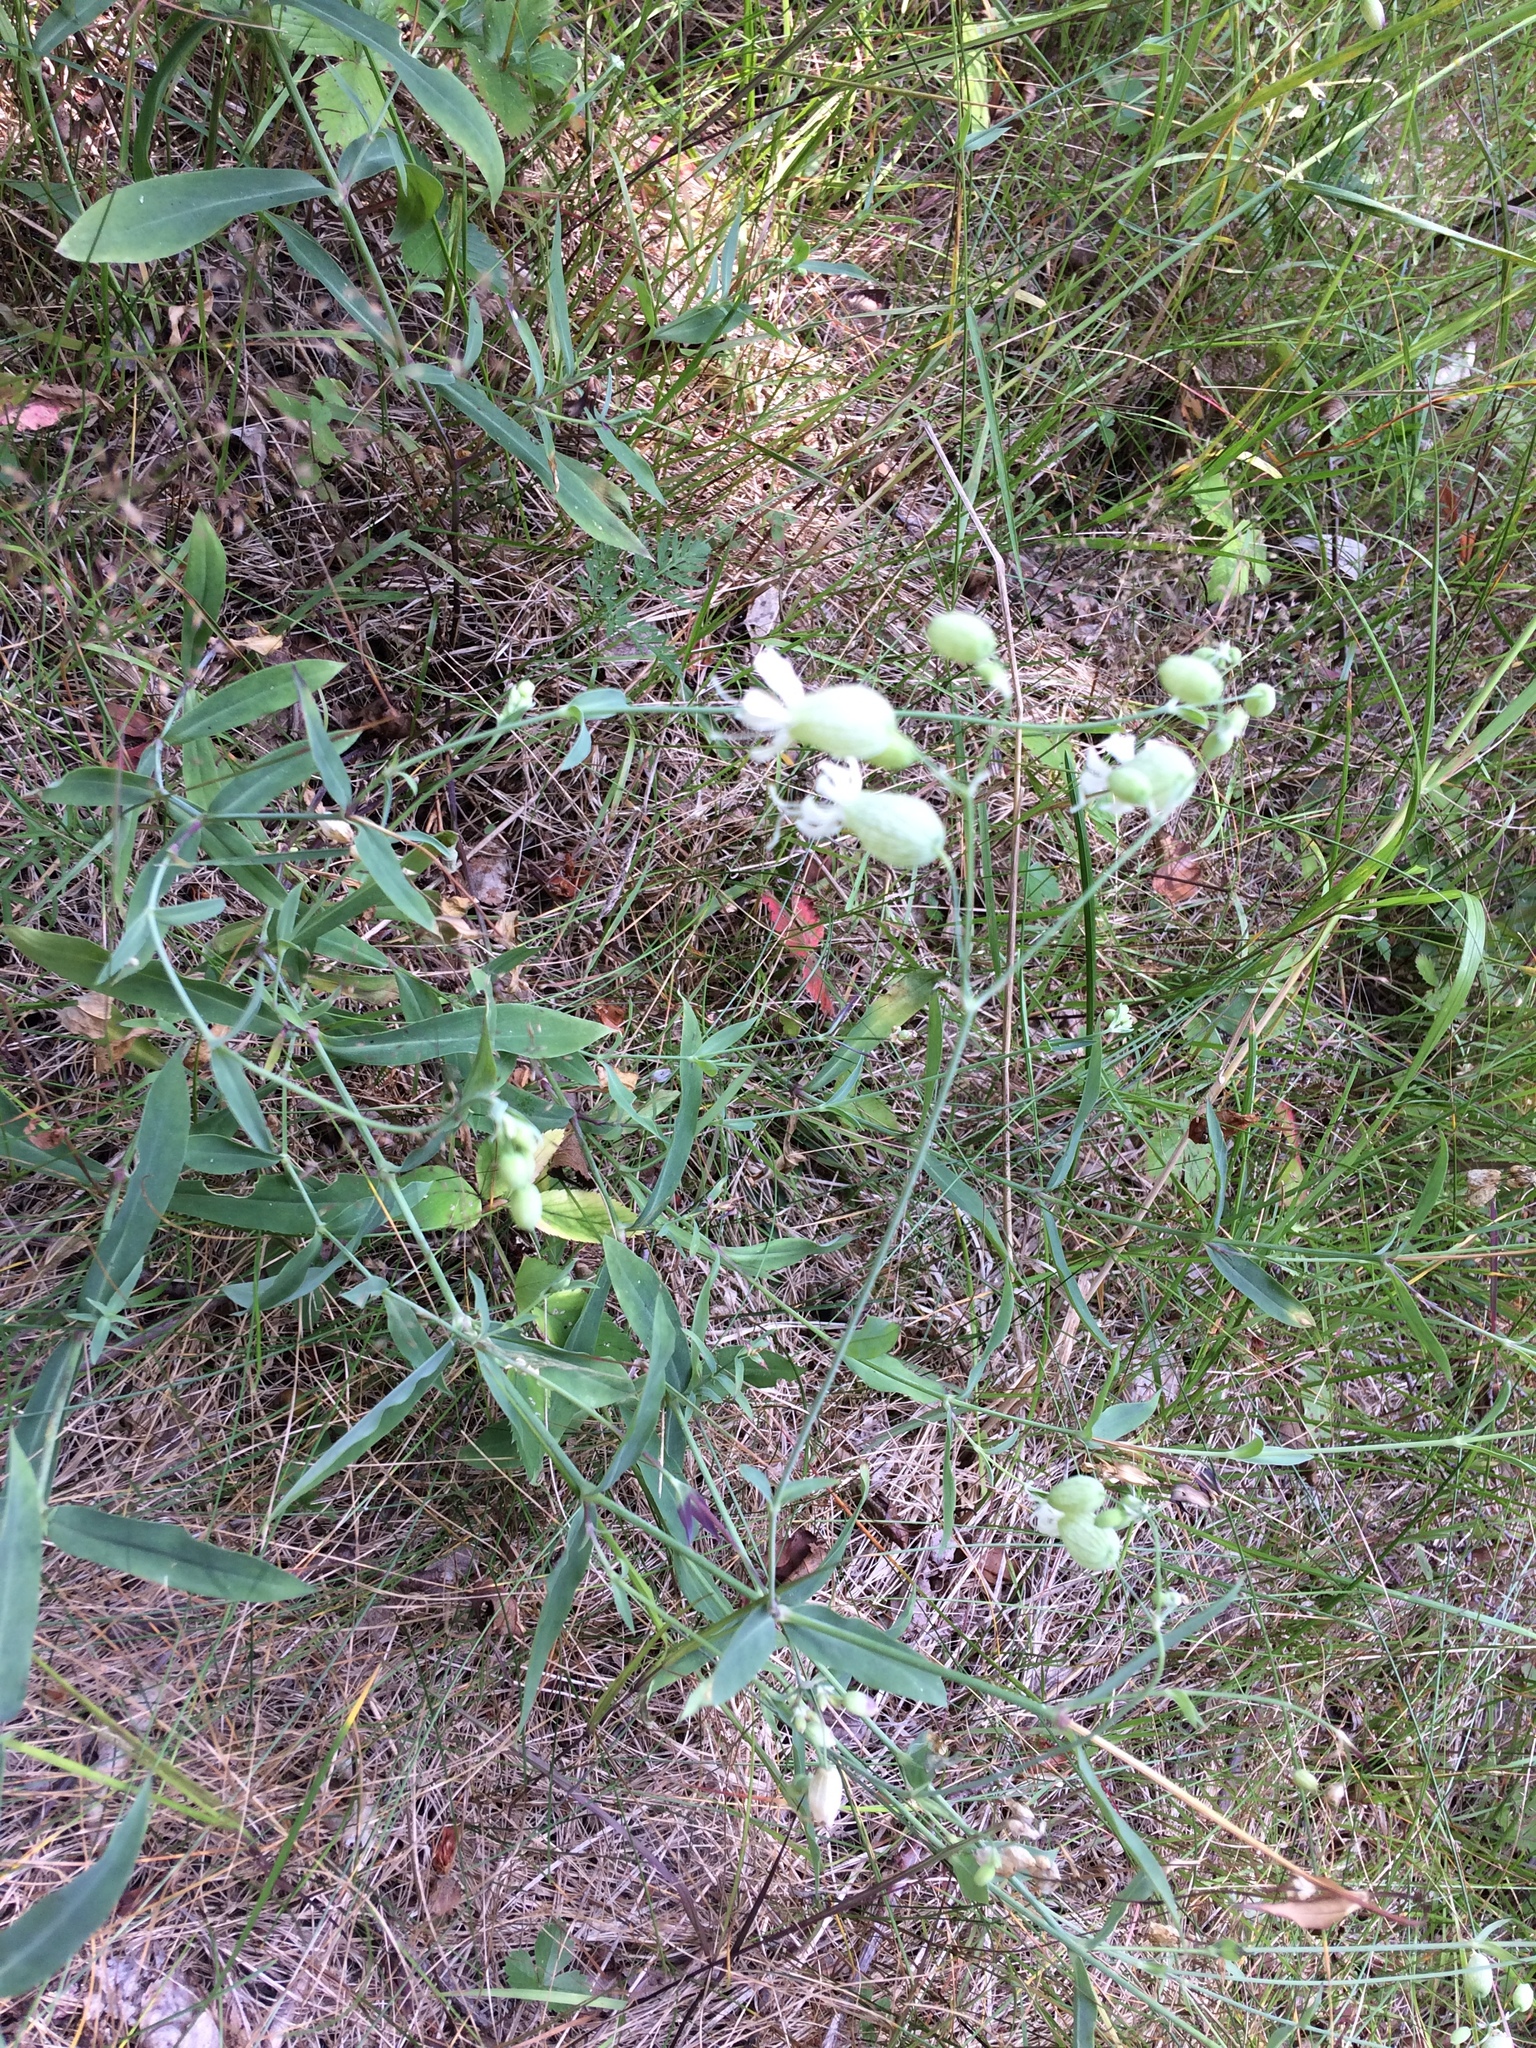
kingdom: Plantae
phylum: Tracheophyta
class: Magnoliopsida
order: Caryophyllales
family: Caryophyllaceae
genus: Silene
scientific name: Silene vulgaris
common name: Bladder campion
